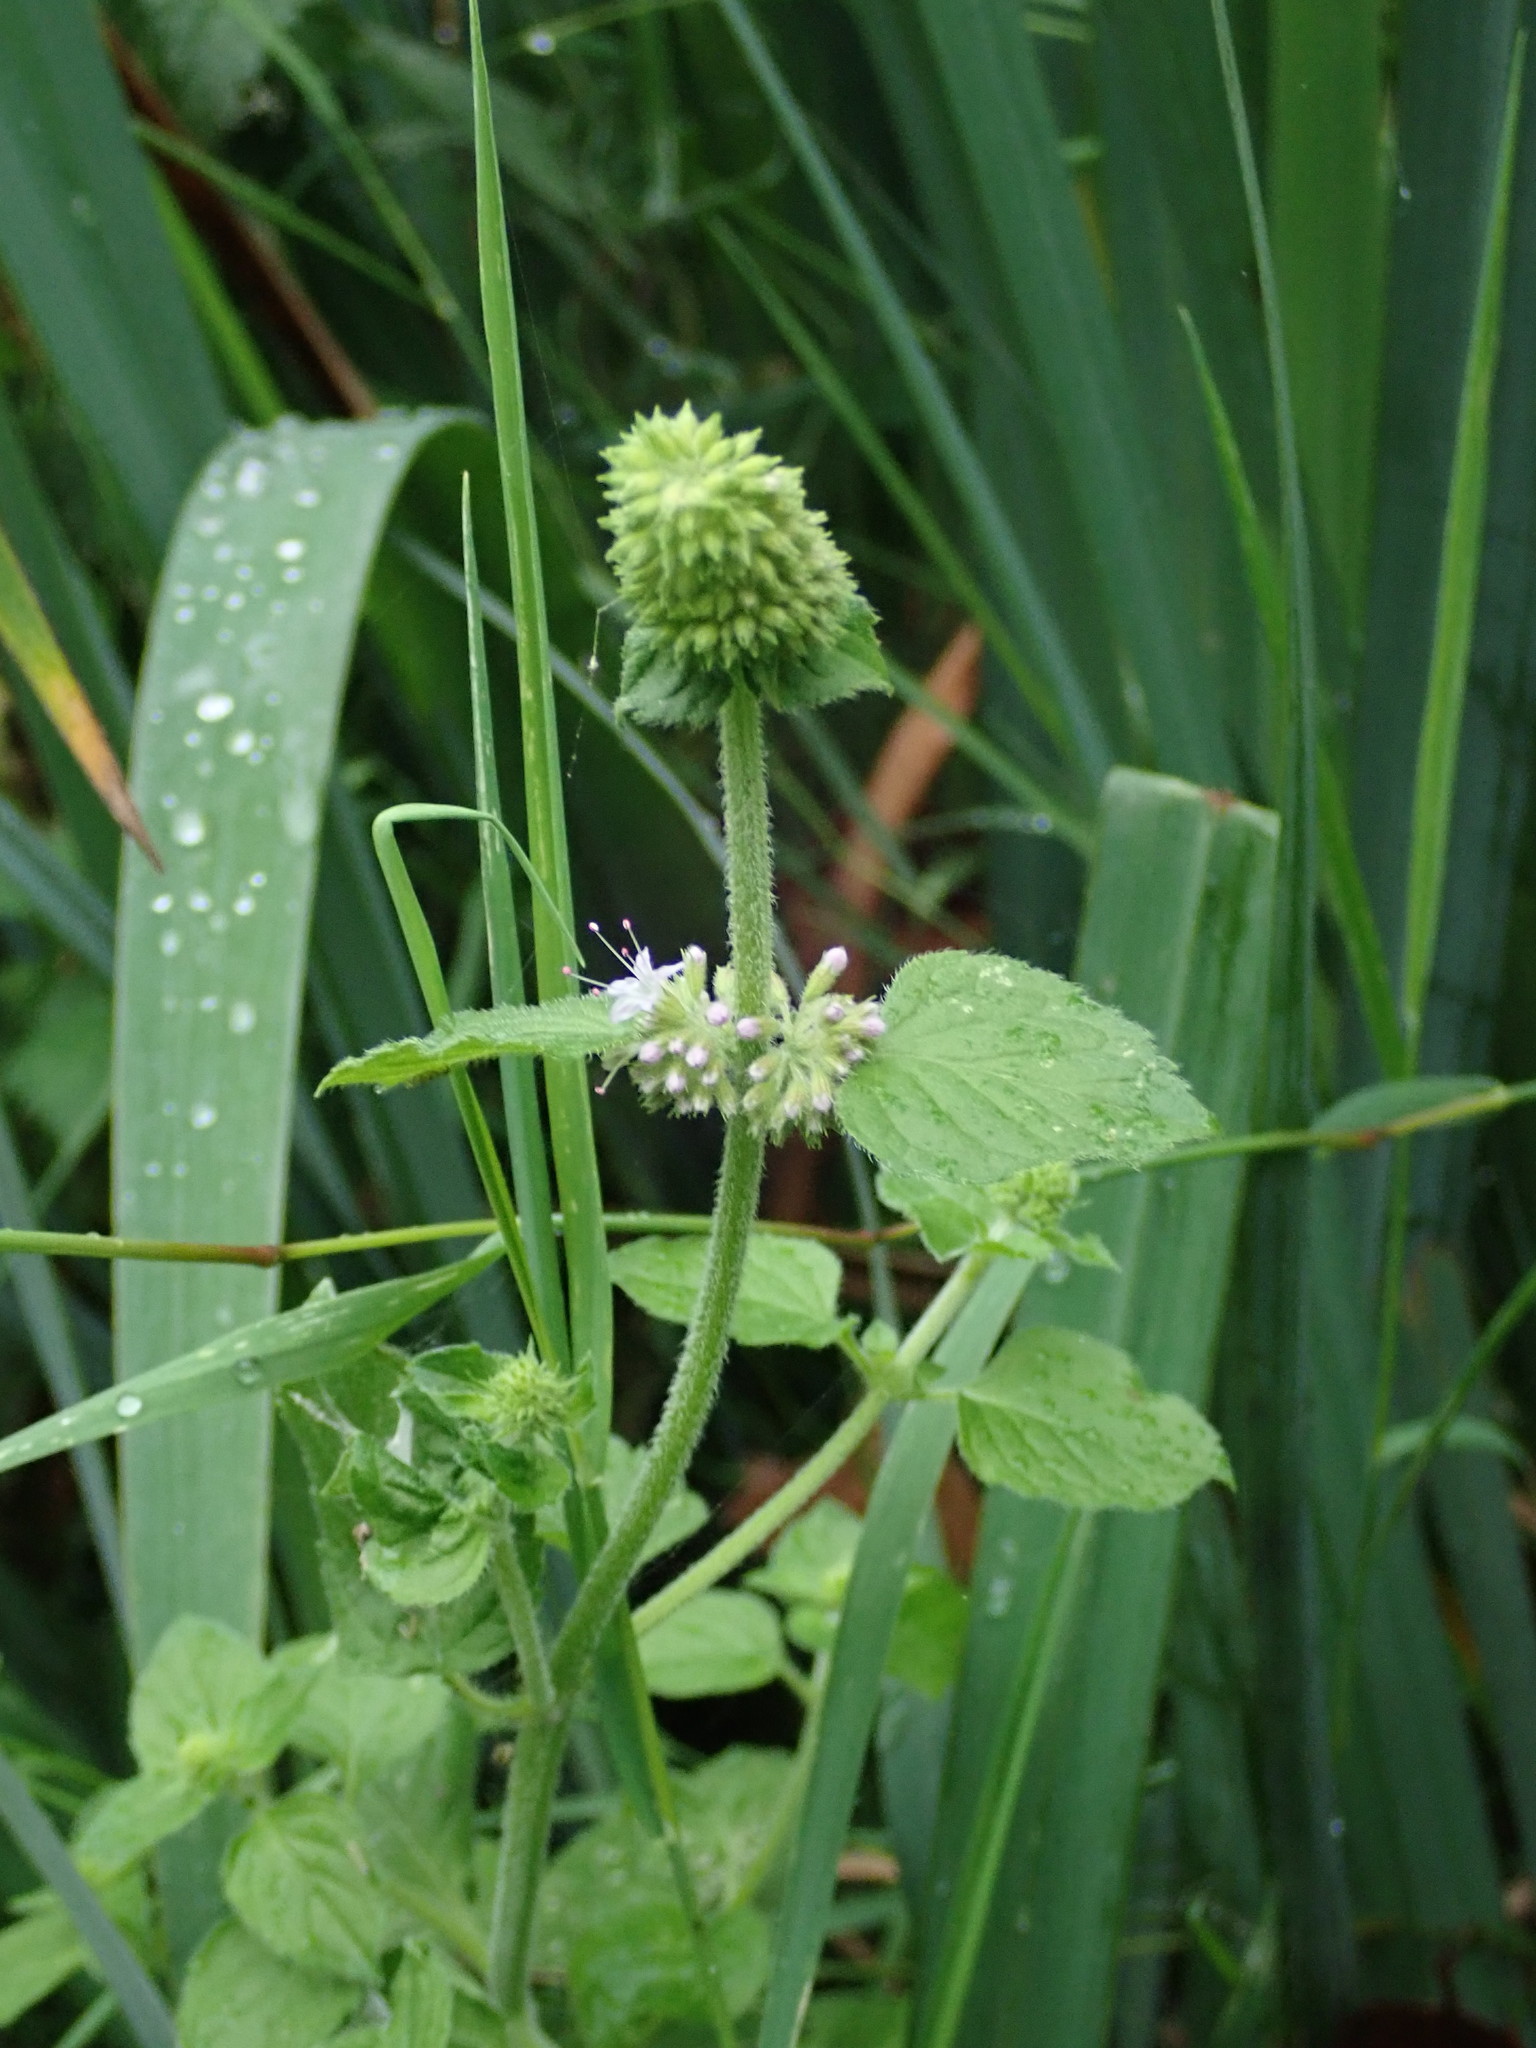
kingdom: Plantae
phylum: Tracheophyta
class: Magnoliopsida
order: Lamiales
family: Lamiaceae
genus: Mentha
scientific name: Mentha aquatica
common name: Water mint
